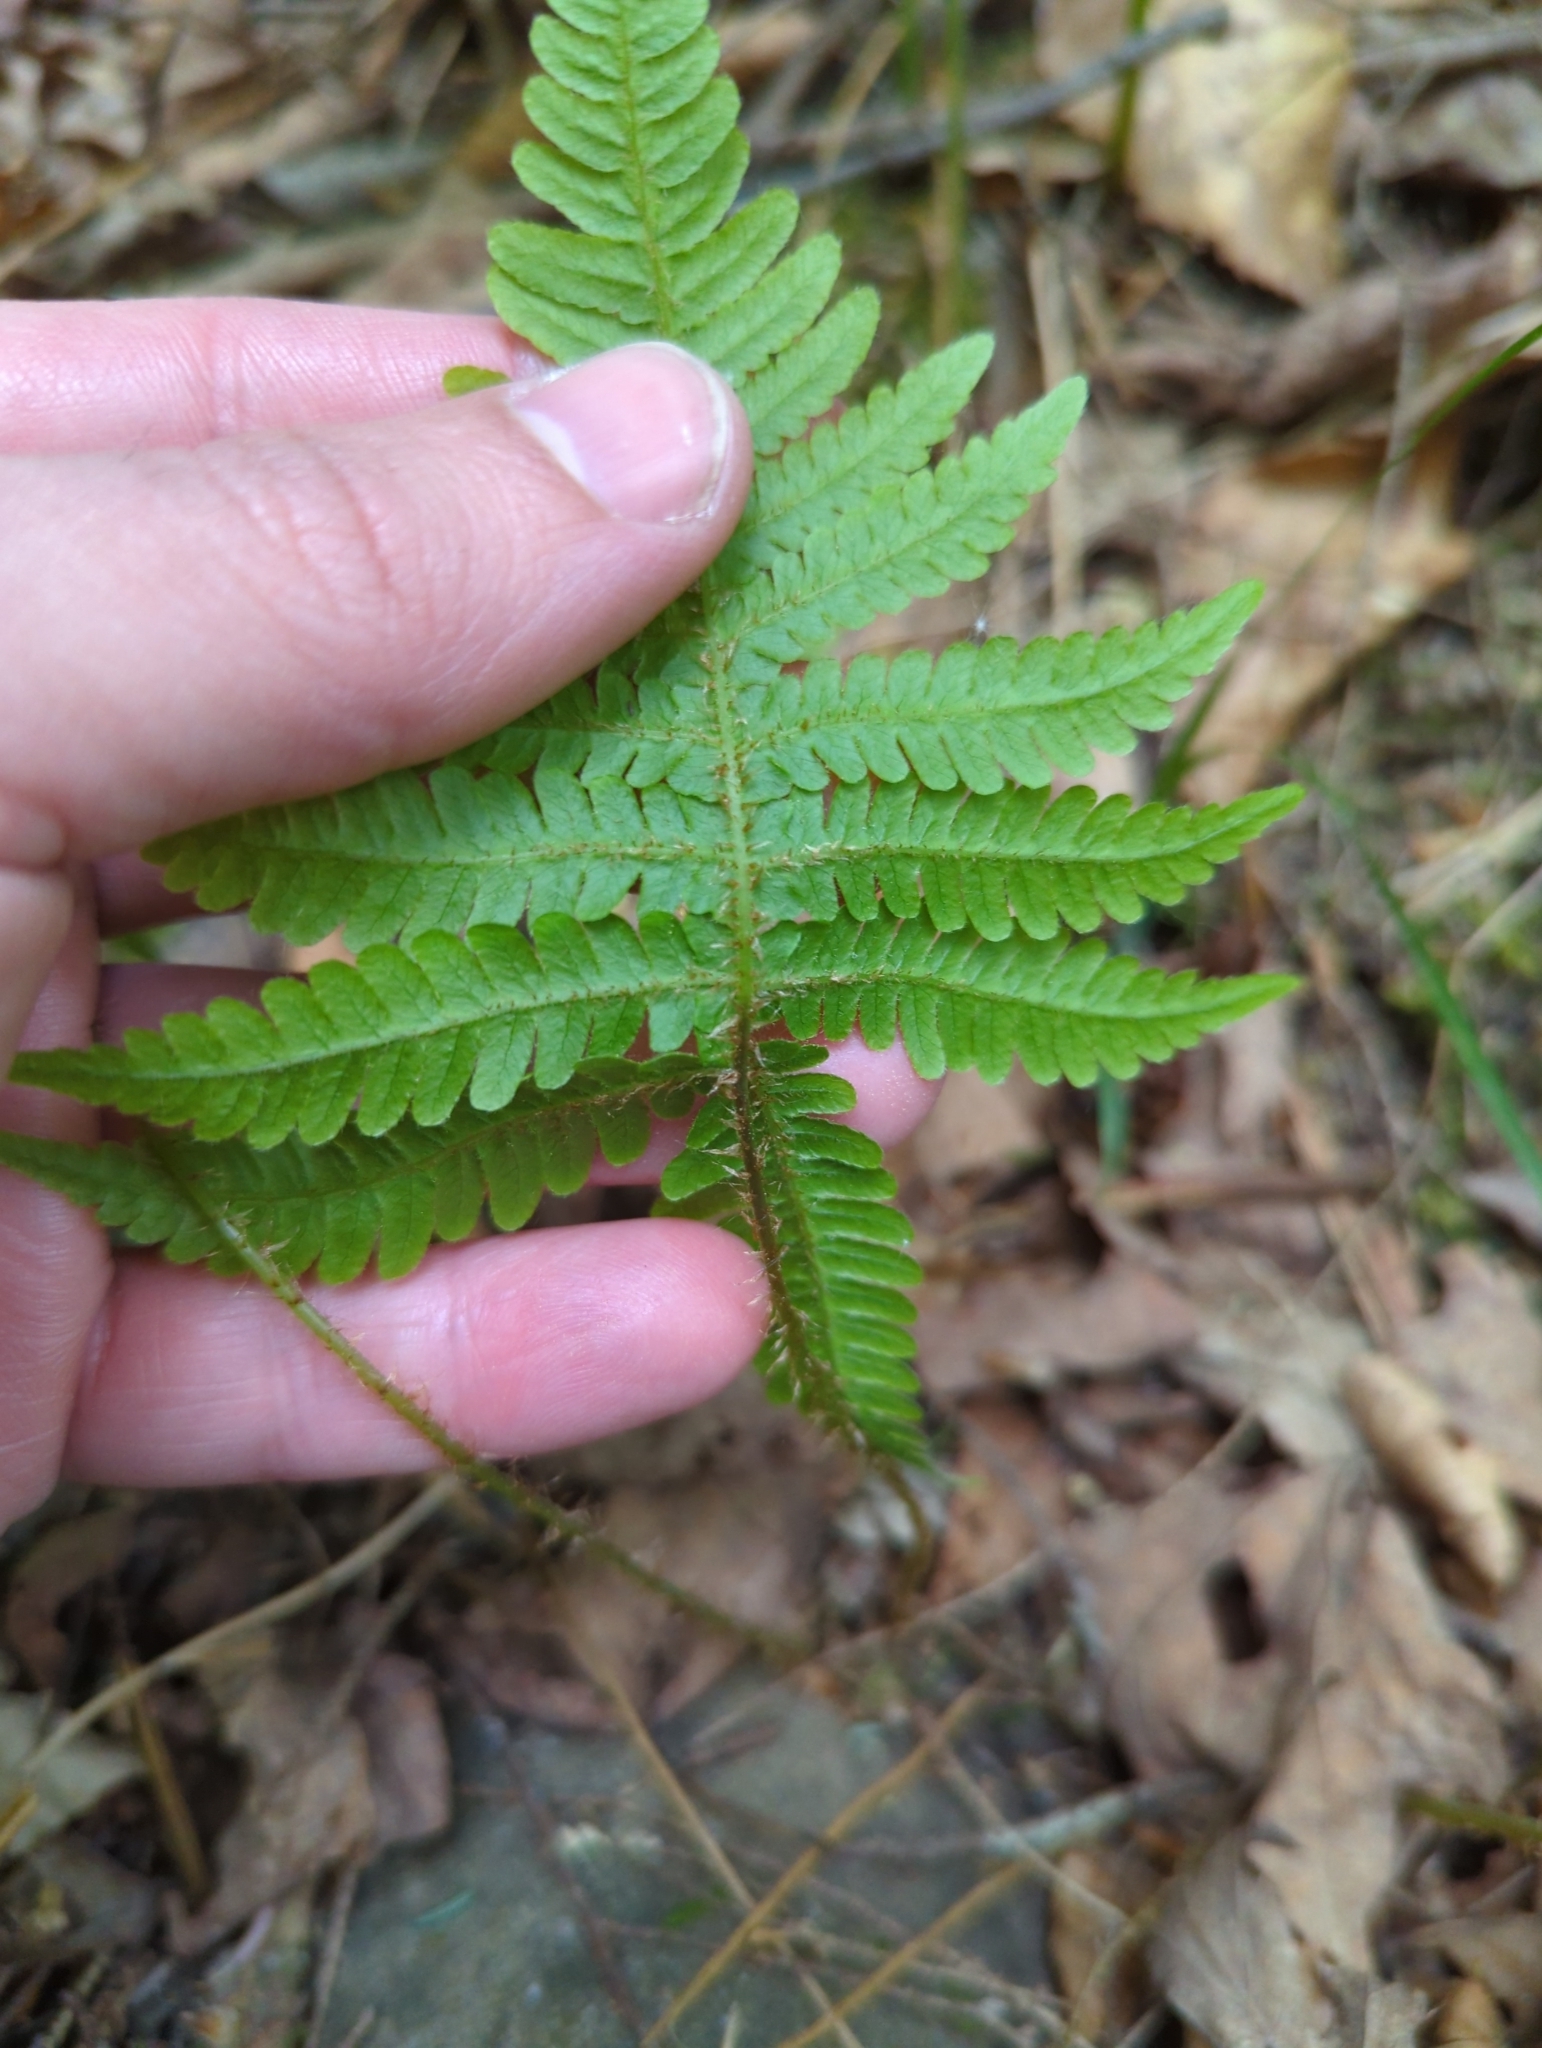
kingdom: Plantae
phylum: Tracheophyta
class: Polypodiopsida
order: Polypodiales
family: Thelypteridaceae
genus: Phegopteris
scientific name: Phegopteris connectilis
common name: Beech fern
